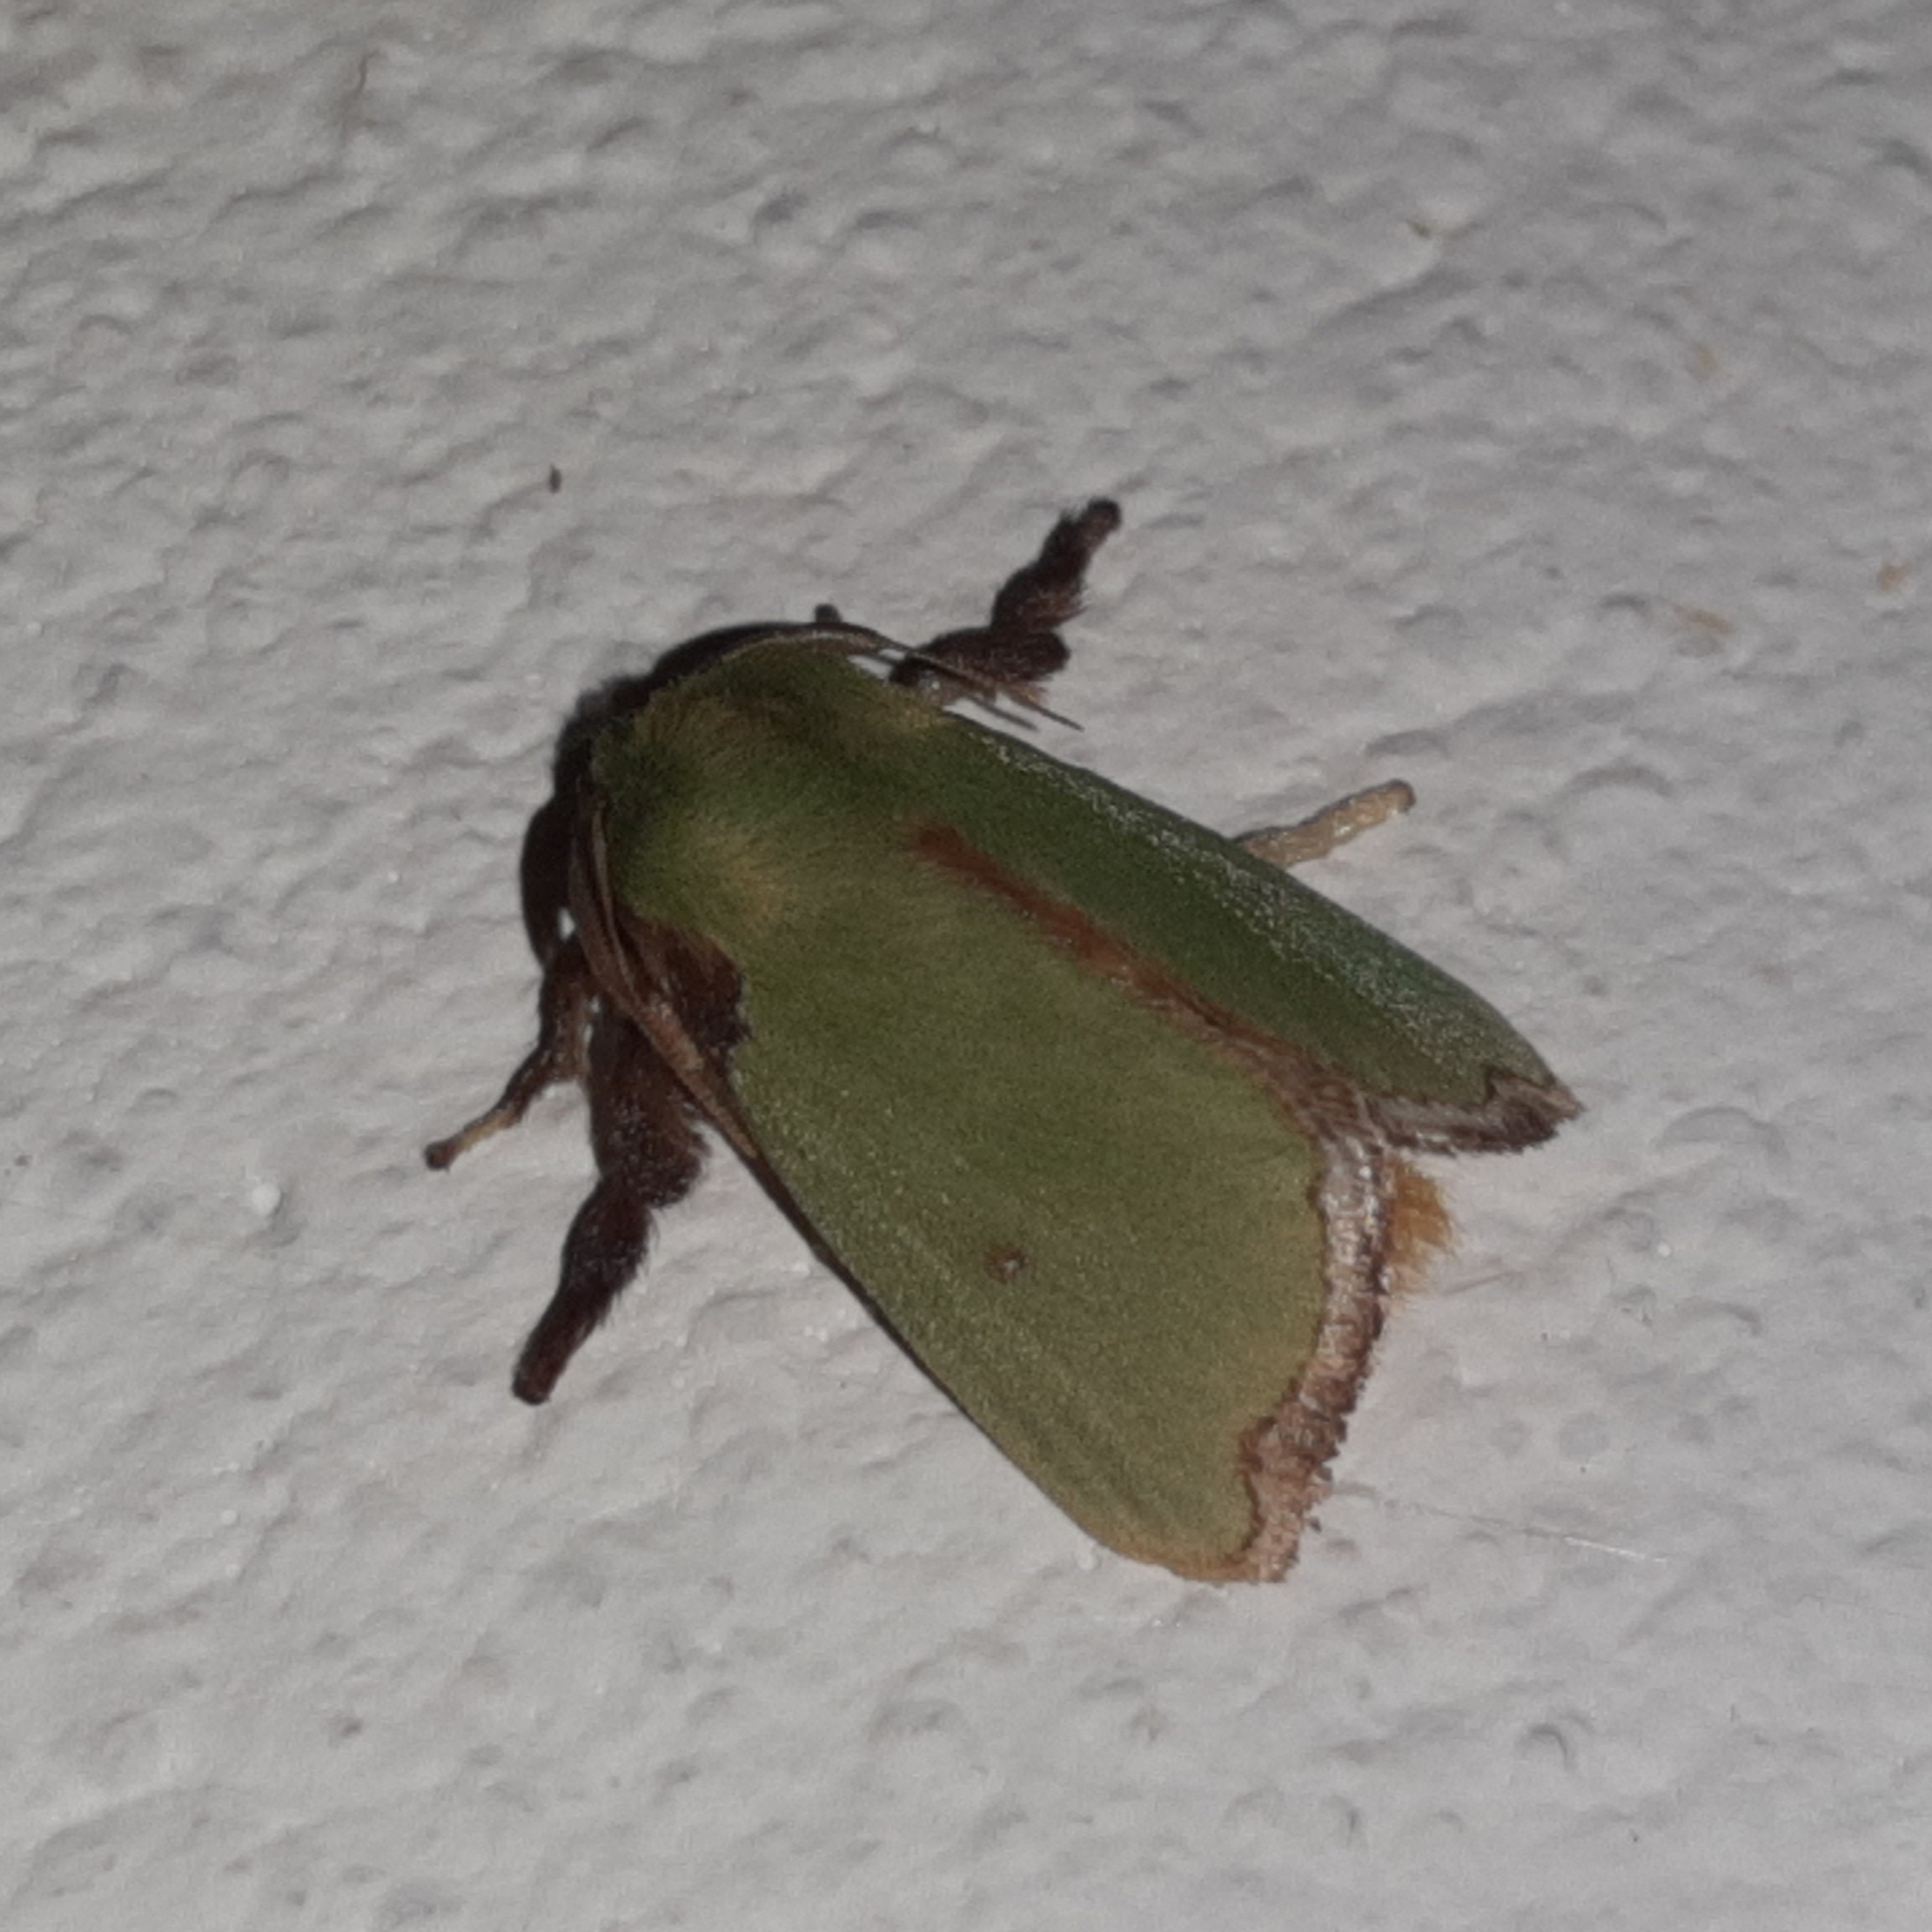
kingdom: Animalia
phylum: Arthropoda
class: Insecta
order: Lepidoptera
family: Limacodidae
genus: Parasa
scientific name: Parasa wellesca
